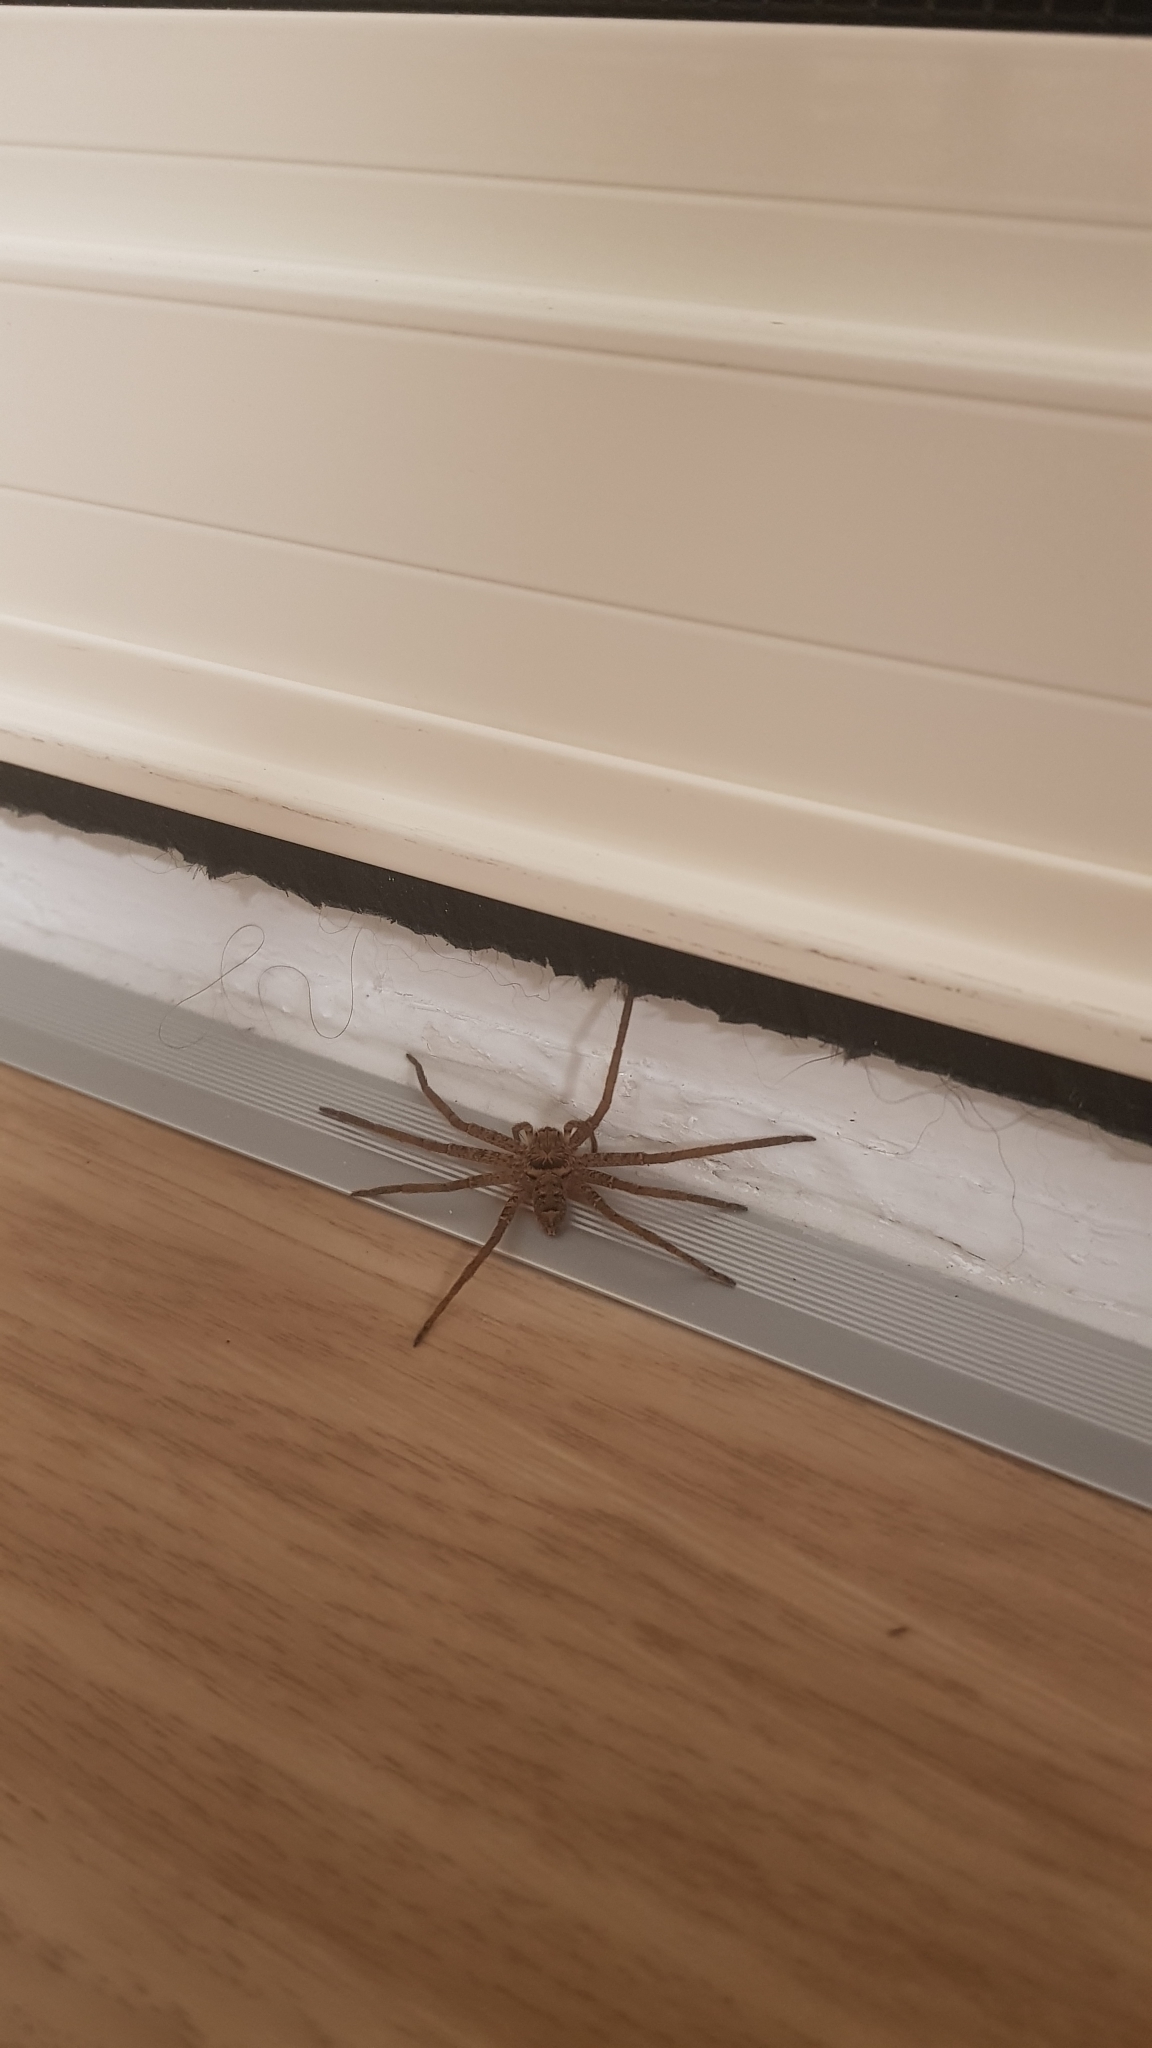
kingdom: Animalia
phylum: Arthropoda
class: Arachnida
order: Araneae
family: Sparassidae
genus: Heteropoda
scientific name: Heteropoda jugulans
